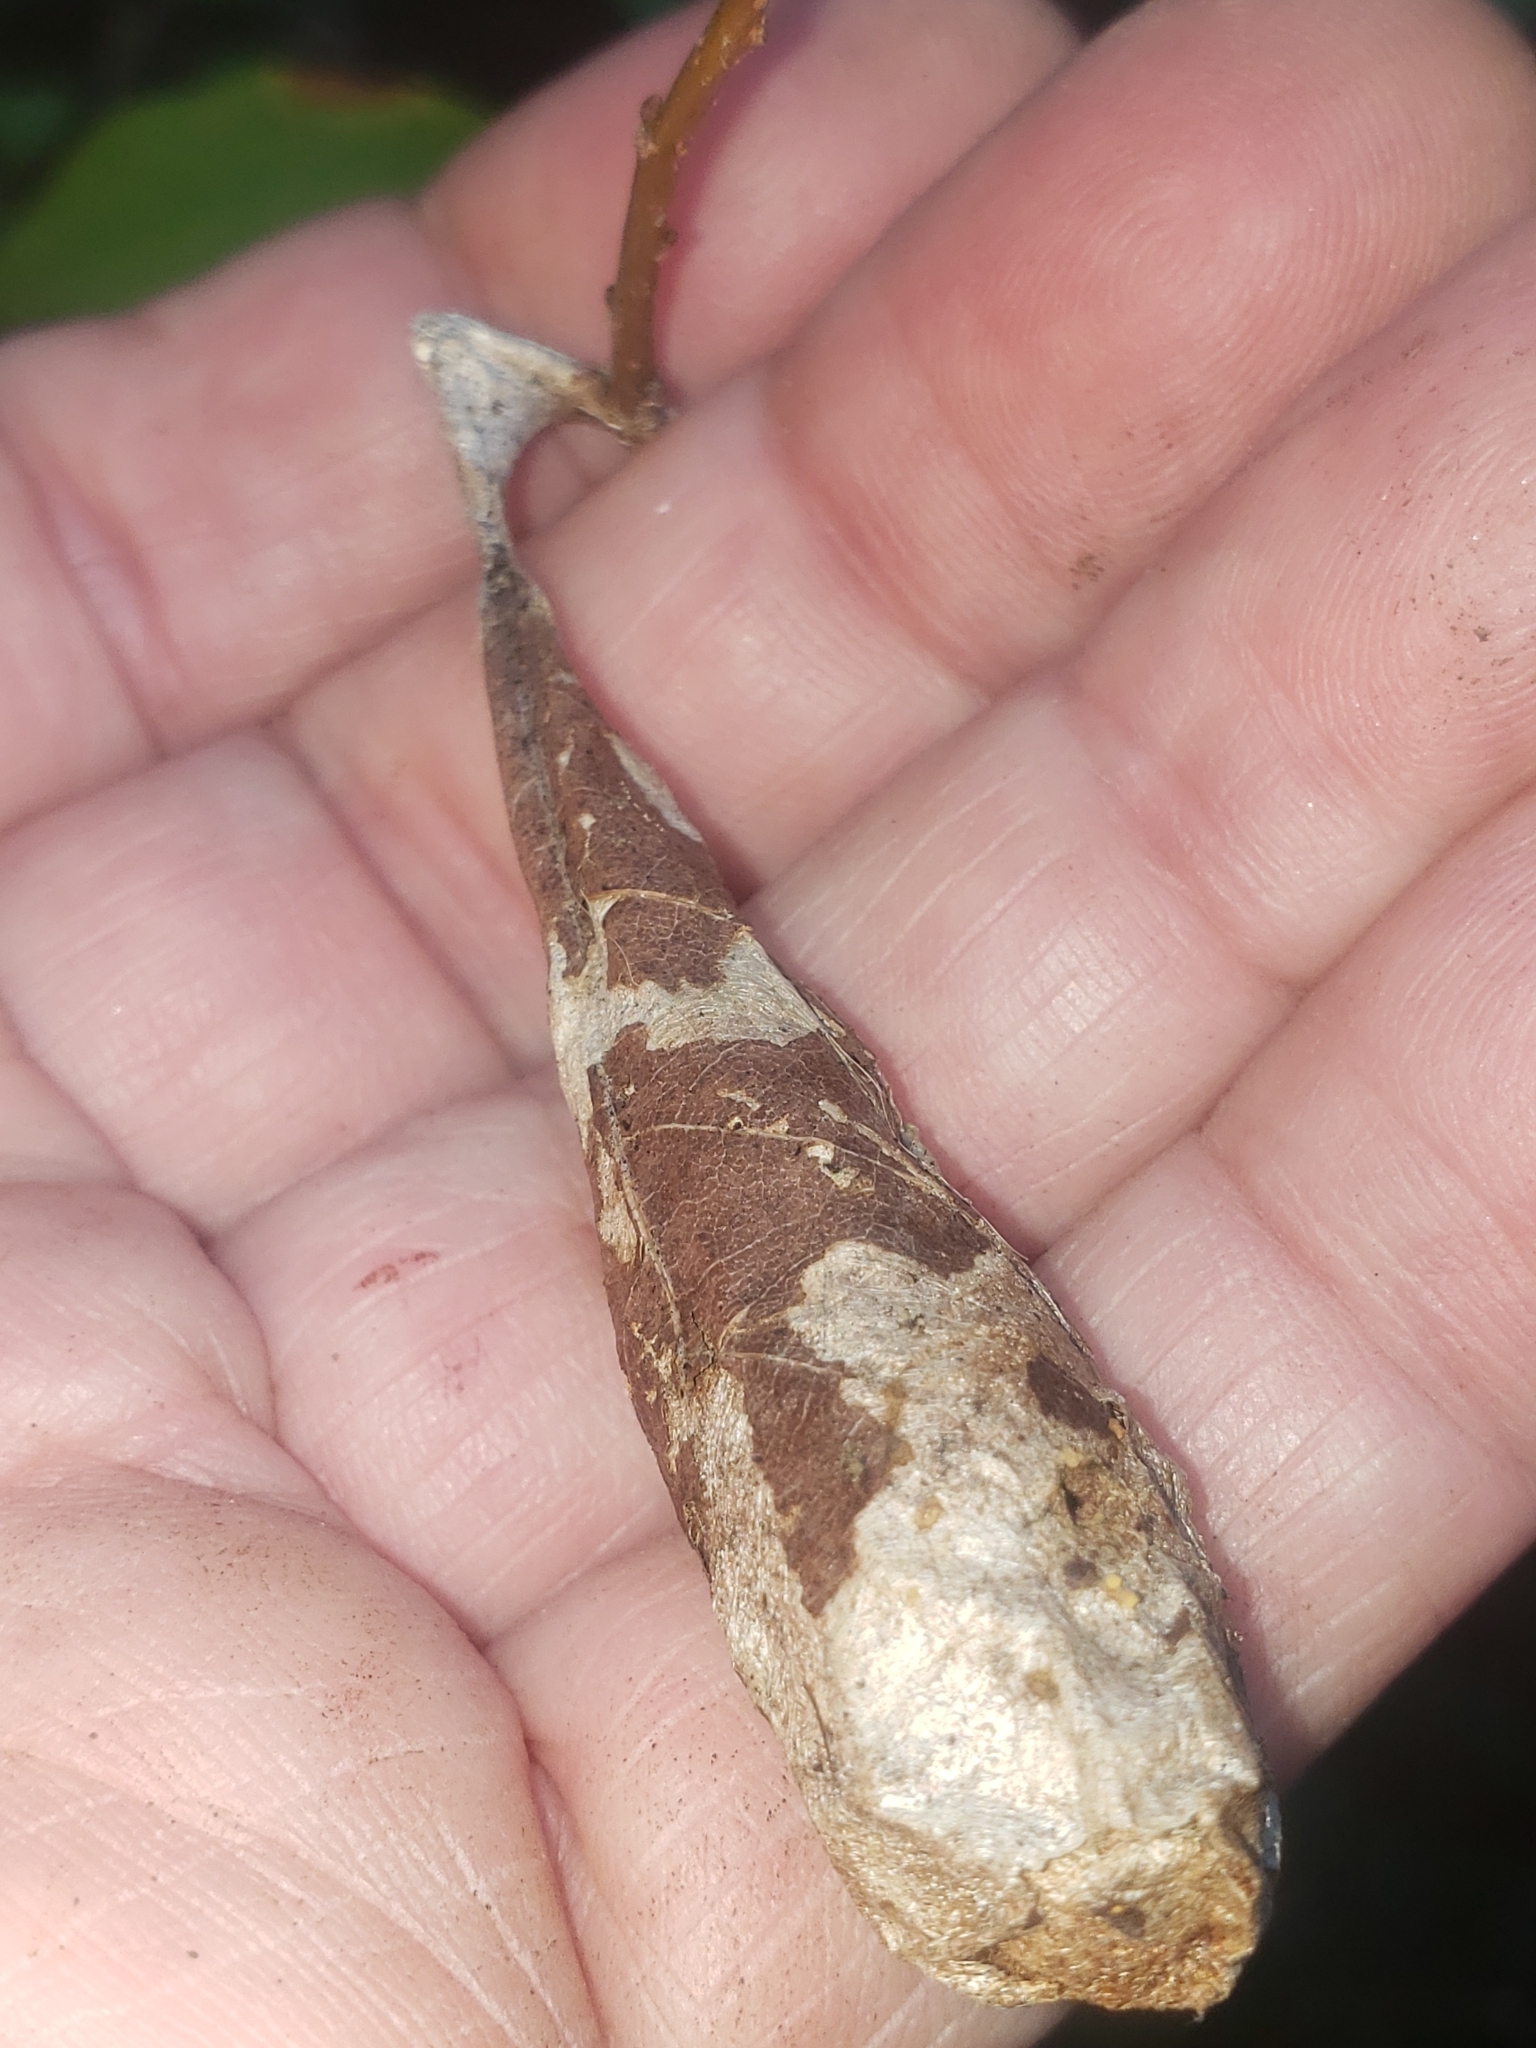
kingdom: Animalia
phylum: Arthropoda
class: Insecta
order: Lepidoptera
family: Saturniidae
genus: Callosamia
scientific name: Callosamia promethea
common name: Promethea silkmoth
